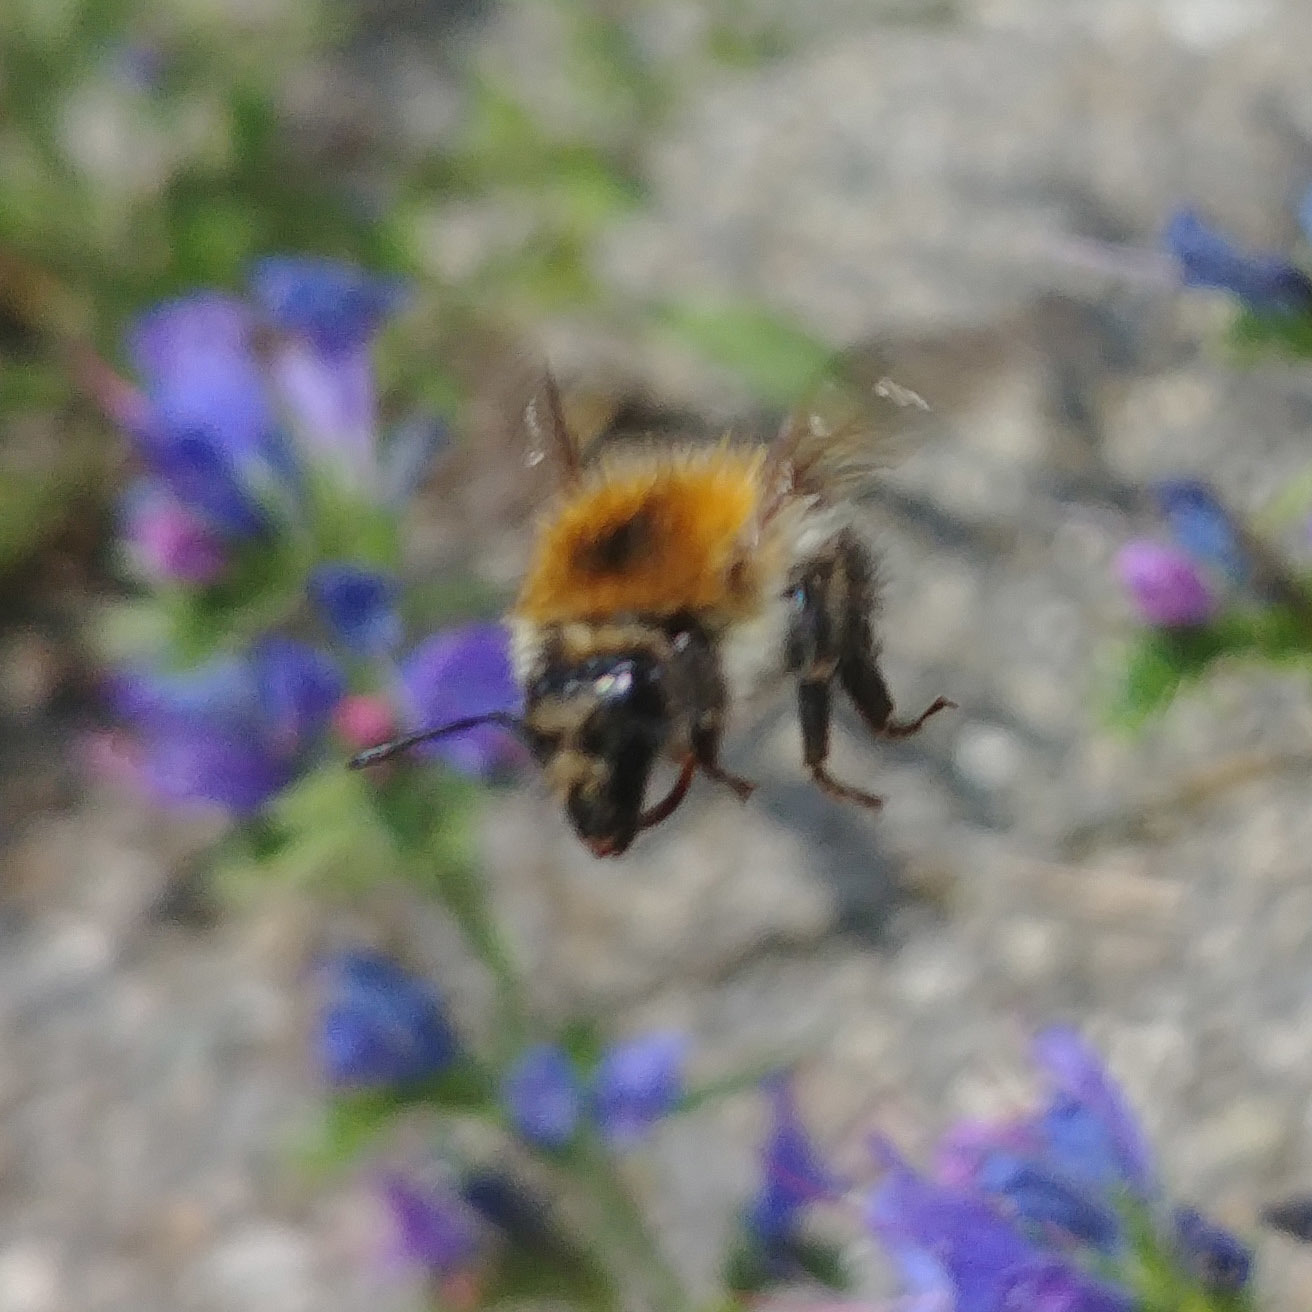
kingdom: Animalia
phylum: Arthropoda
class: Insecta
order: Hymenoptera
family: Apidae
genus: Bombus
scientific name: Bombus pascuorum
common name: Common carder bee
